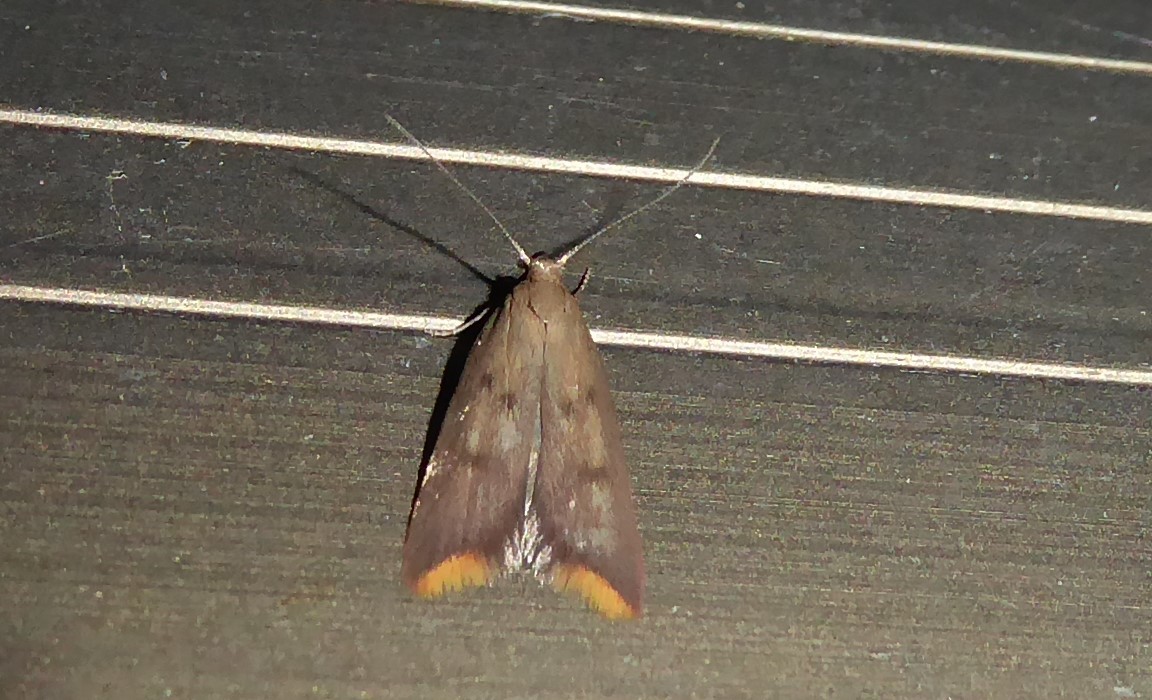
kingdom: Animalia
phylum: Arthropoda
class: Insecta
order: Lepidoptera
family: Oecophoridae
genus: Tachystola
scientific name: Tachystola acroxantha
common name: Ruddy streak
